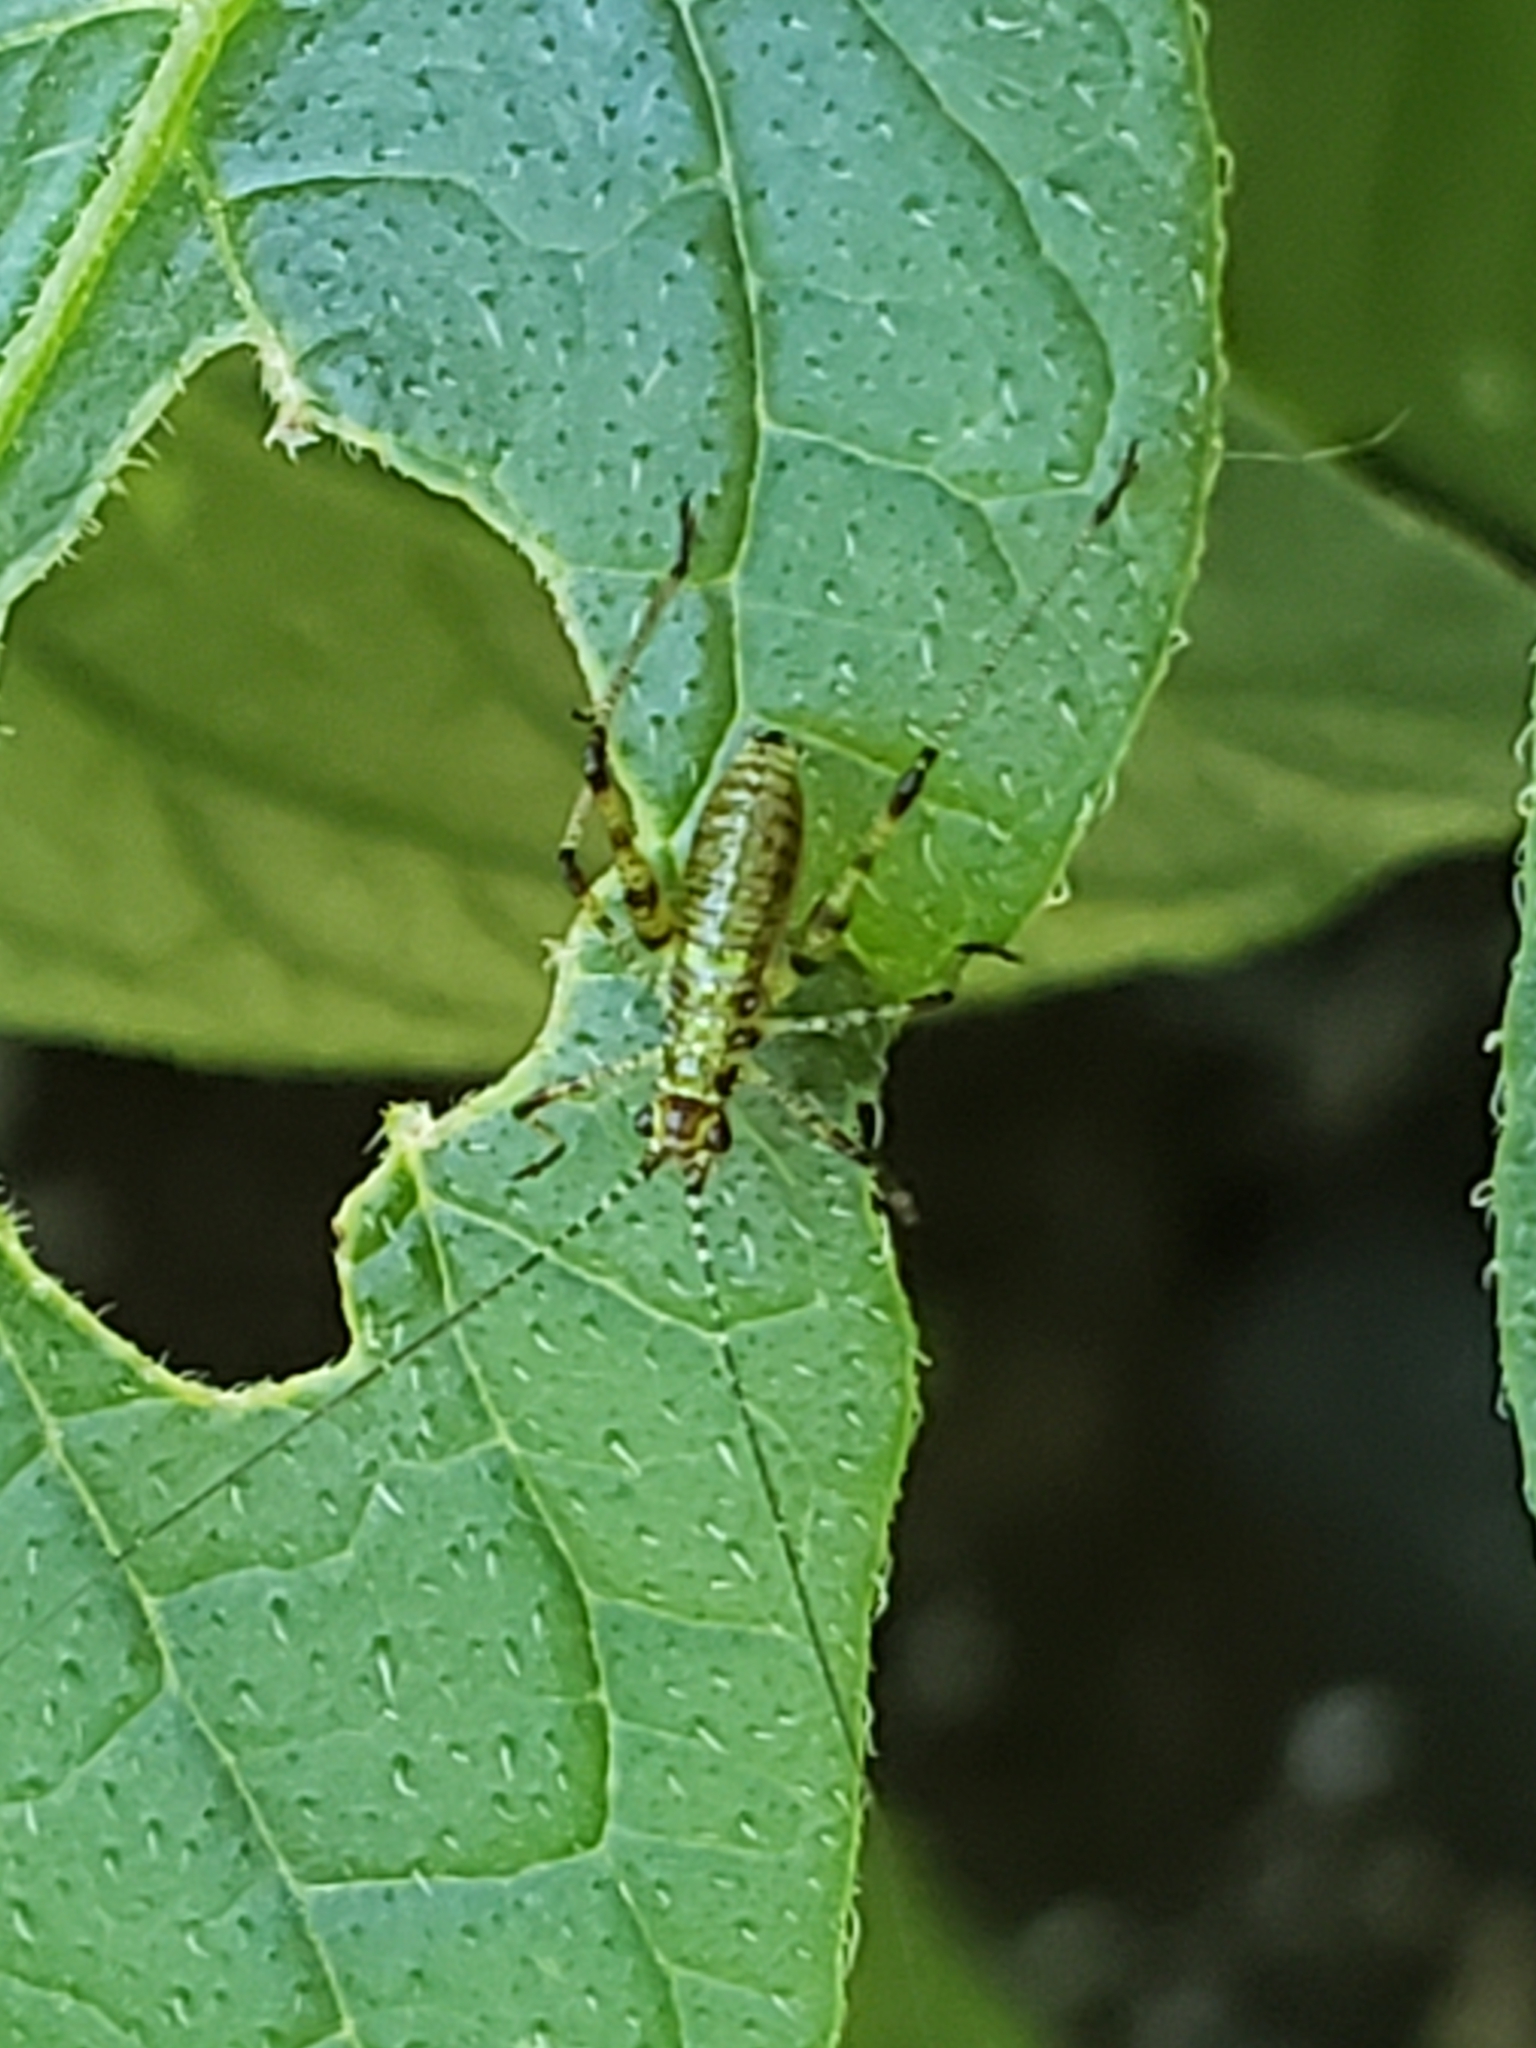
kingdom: Animalia
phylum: Arthropoda
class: Insecta
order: Orthoptera
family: Tettigoniidae
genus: Phaneroptera
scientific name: Phaneroptera nana
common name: Southern sickle bush-cricket
